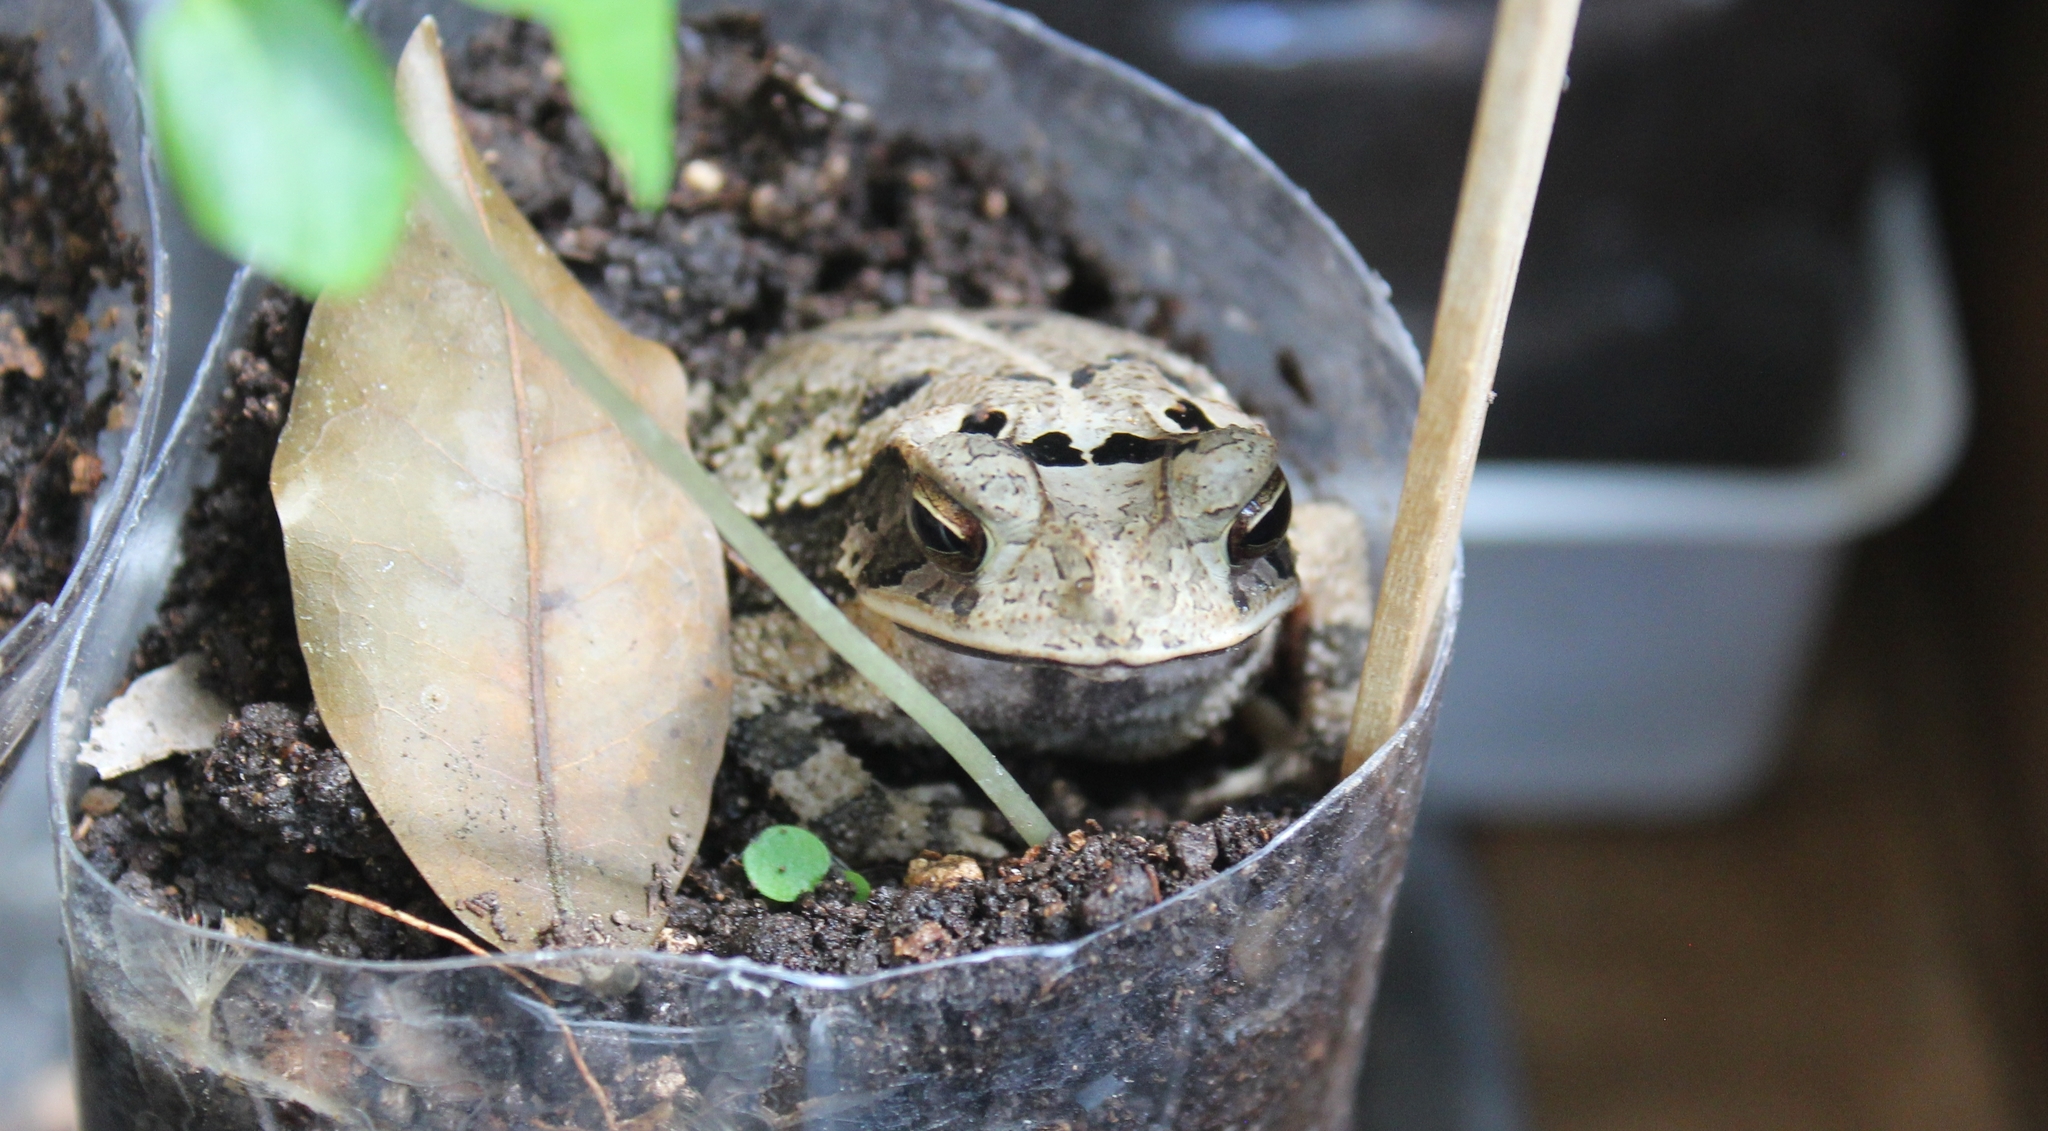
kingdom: Animalia
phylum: Chordata
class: Amphibia
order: Anura
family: Bufonidae
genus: Incilius
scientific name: Incilius valliceps
